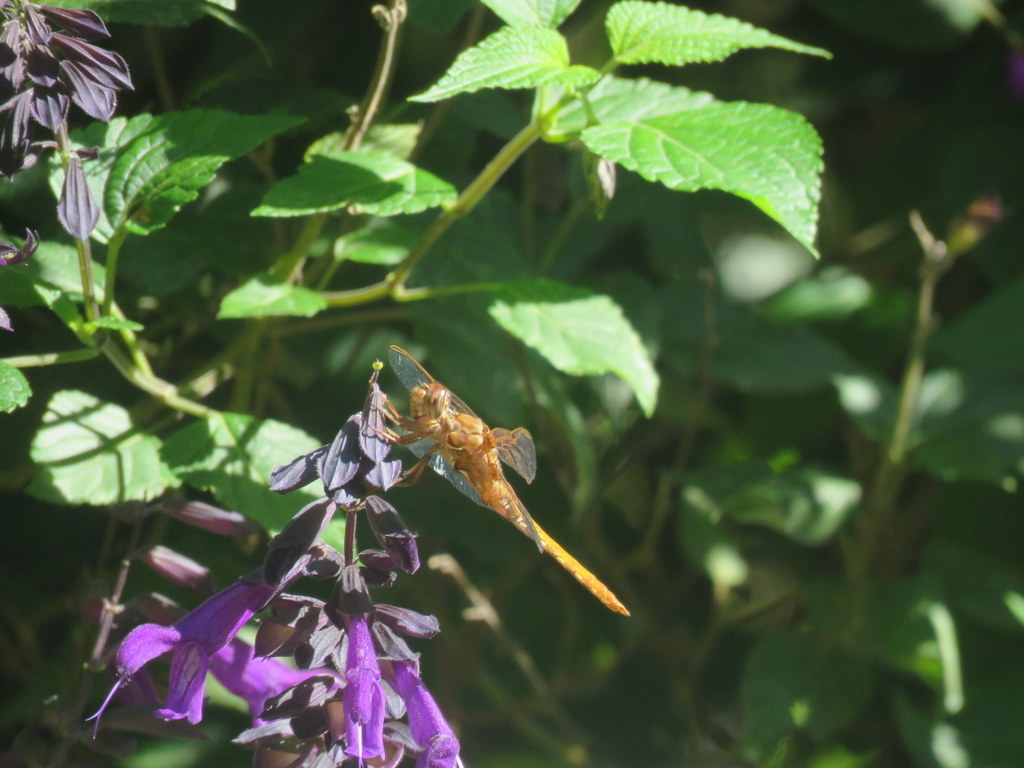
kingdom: Animalia
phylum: Arthropoda
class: Insecta
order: Odonata
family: Libellulidae
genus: Orthemis
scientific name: Orthemis nodiplaga
